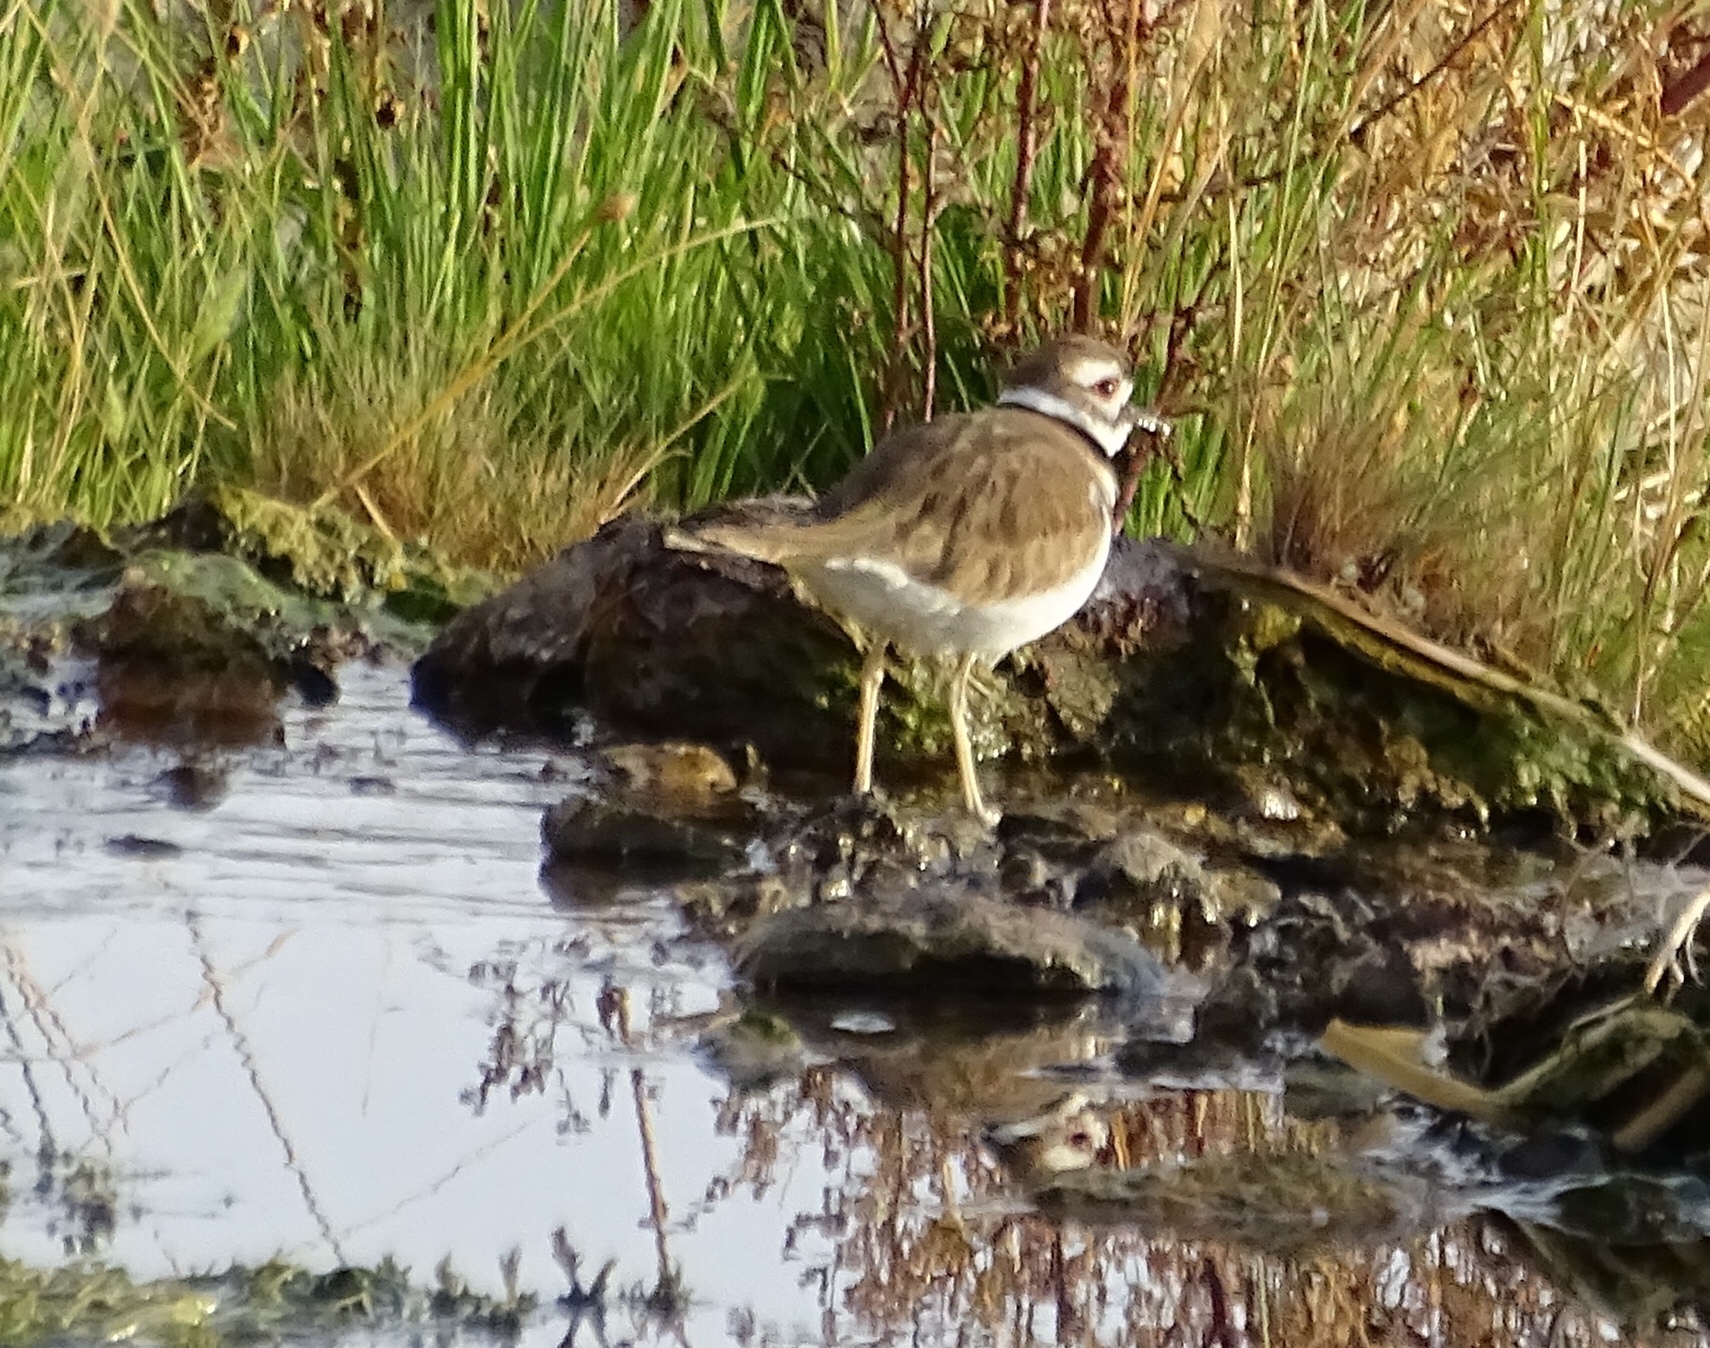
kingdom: Animalia
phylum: Chordata
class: Aves
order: Charadriiformes
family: Charadriidae
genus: Charadrius
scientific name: Charadrius vociferus
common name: Killdeer
